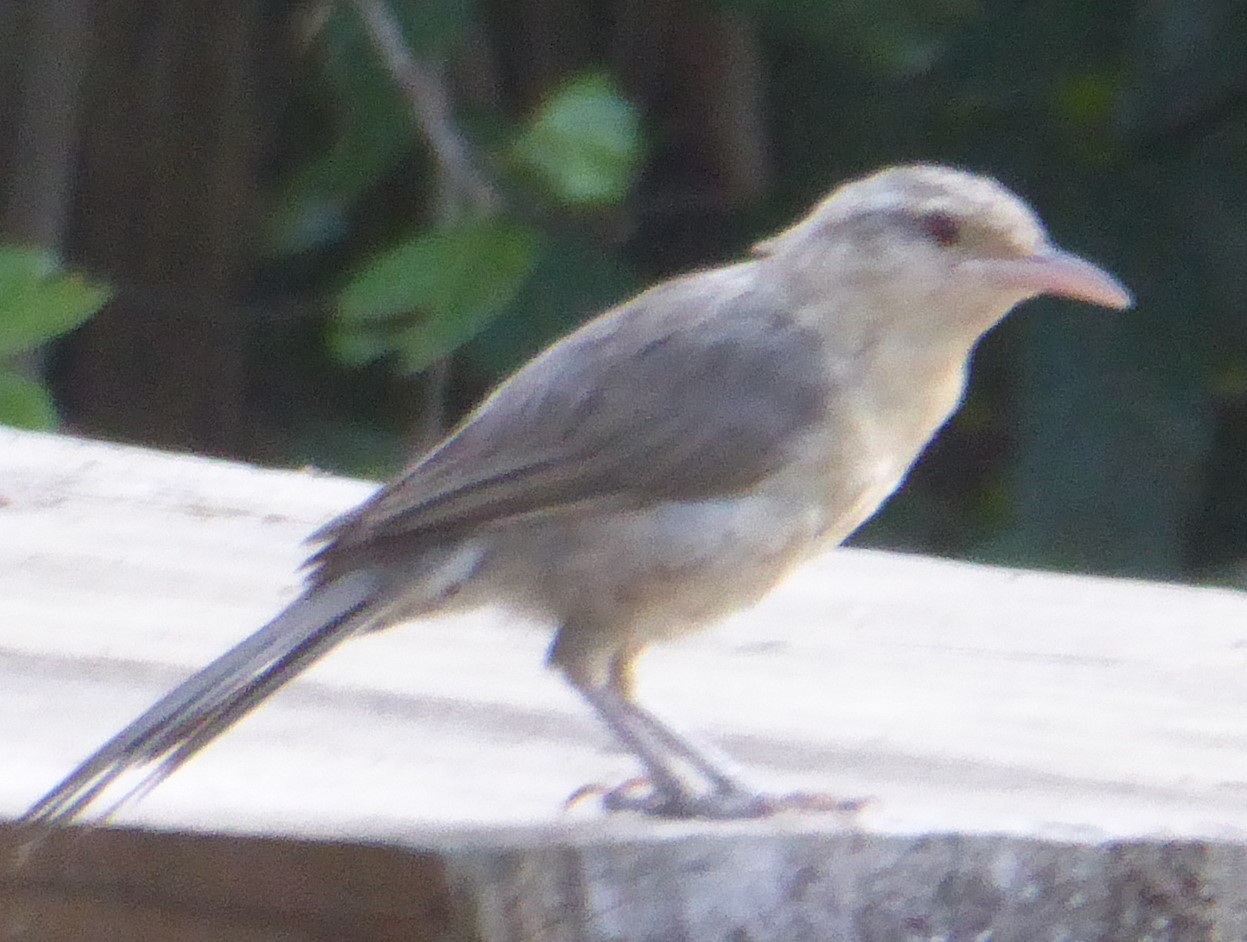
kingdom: Animalia
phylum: Chordata
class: Aves
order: Passeriformes
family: Troglodytidae
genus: Campylorhynchus
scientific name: Campylorhynchus turdinus
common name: Thrush-like wren
